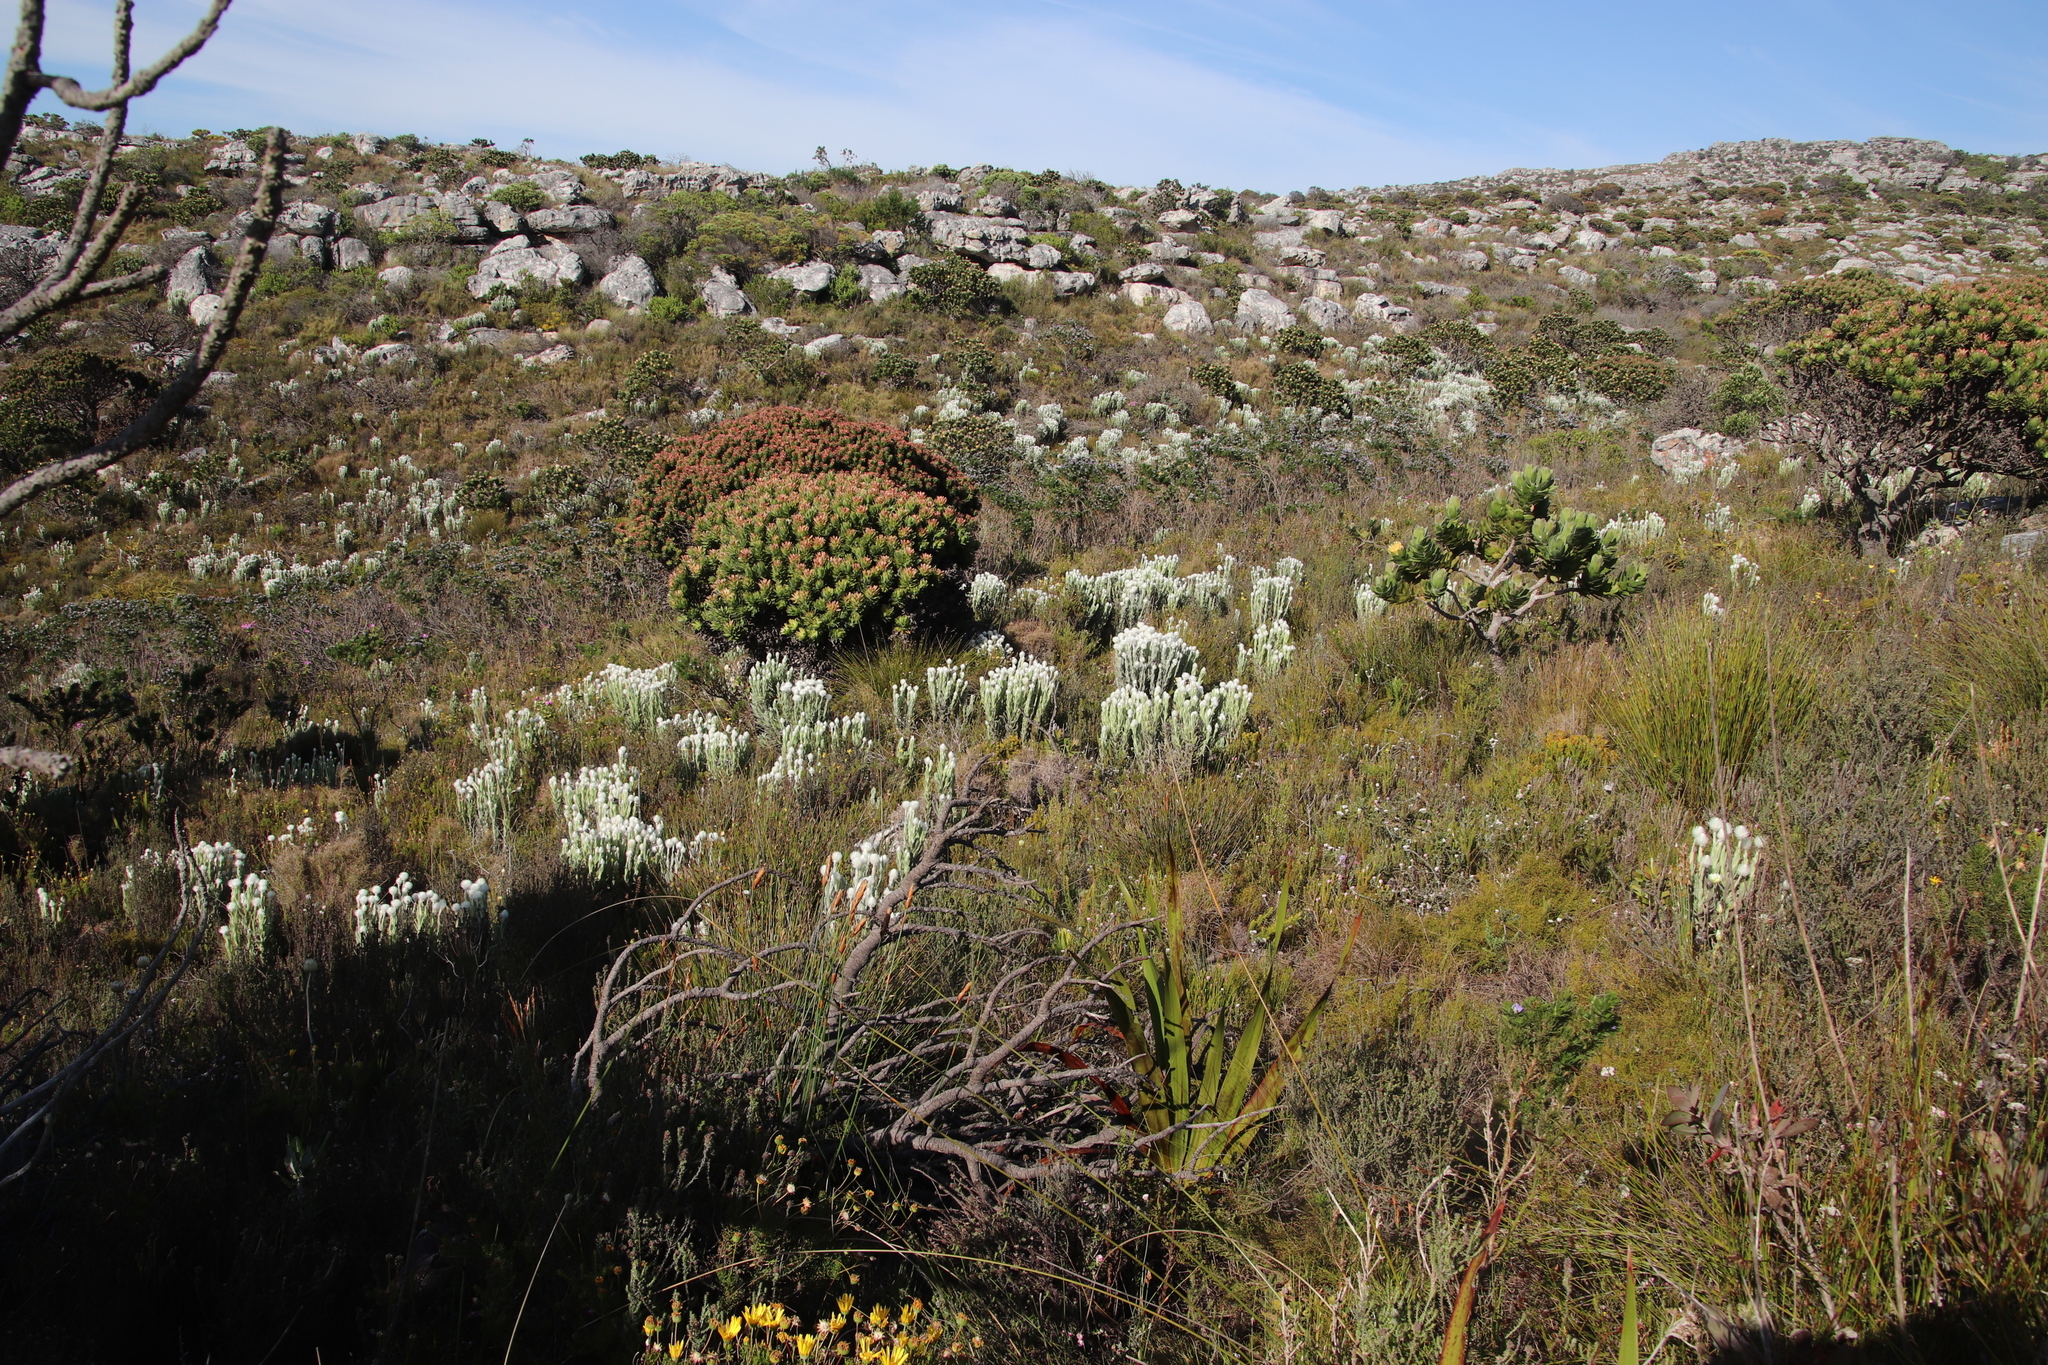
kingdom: Plantae
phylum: Tracheophyta
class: Magnoliopsida
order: Asterales
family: Asteraceae
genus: Syncarpha
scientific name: Syncarpha vestita
